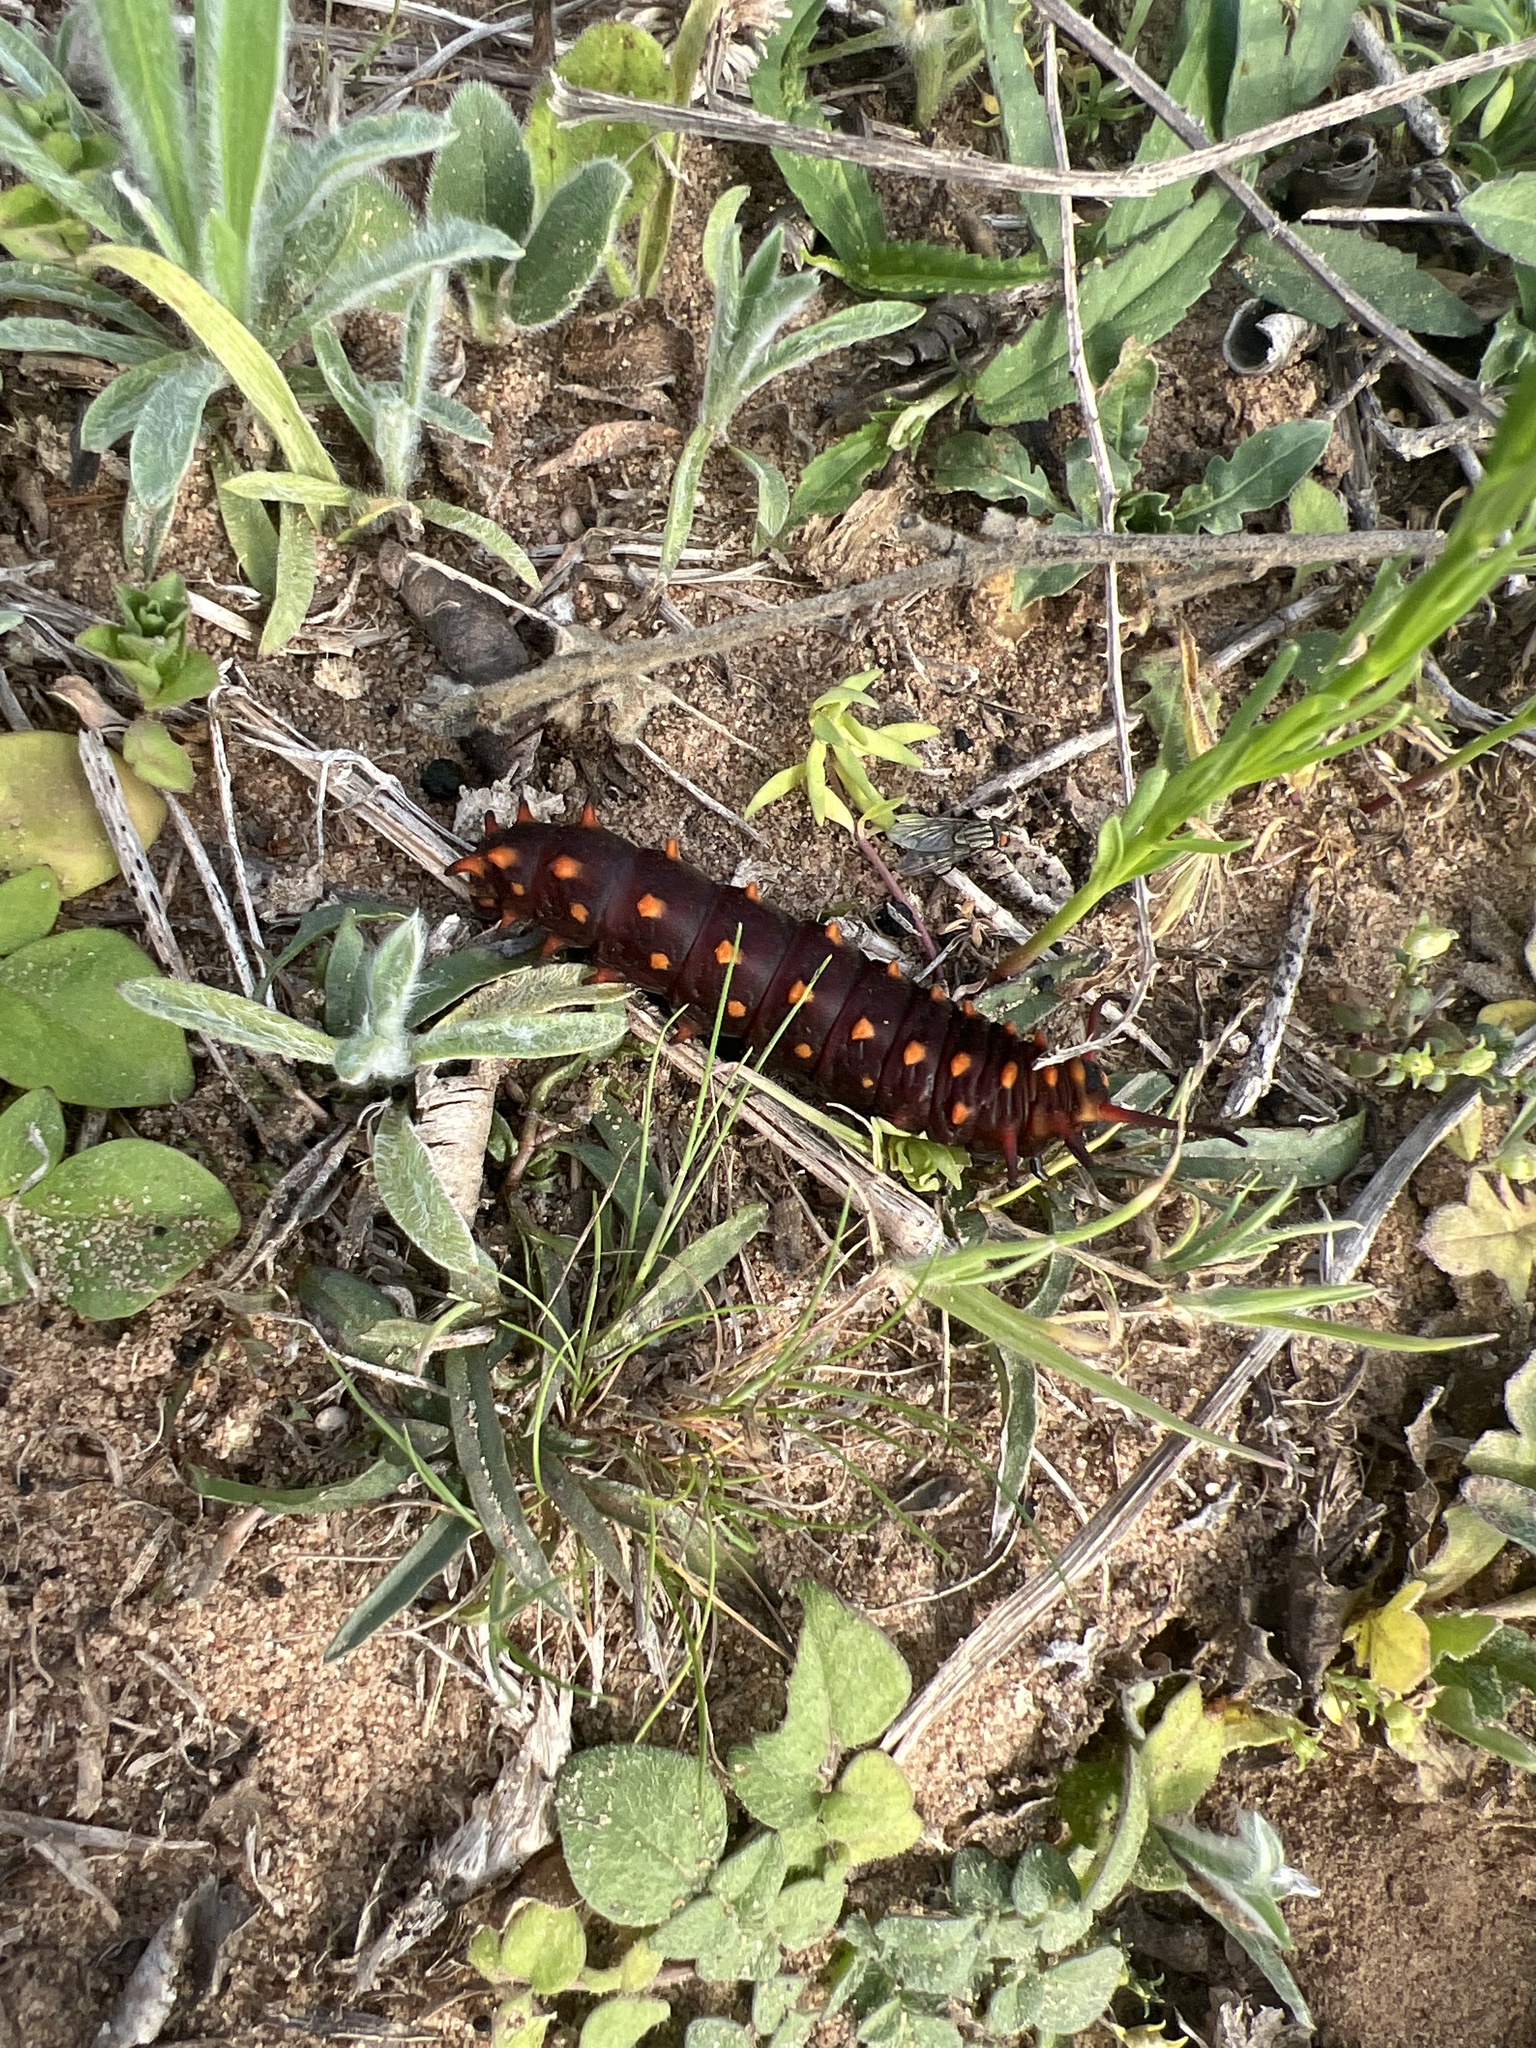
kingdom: Animalia
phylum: Arthropoda
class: Insecta
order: Lepidoptera
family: Papilionidae
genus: Battus
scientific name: Battus philenor
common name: Pipevine swallowtail
